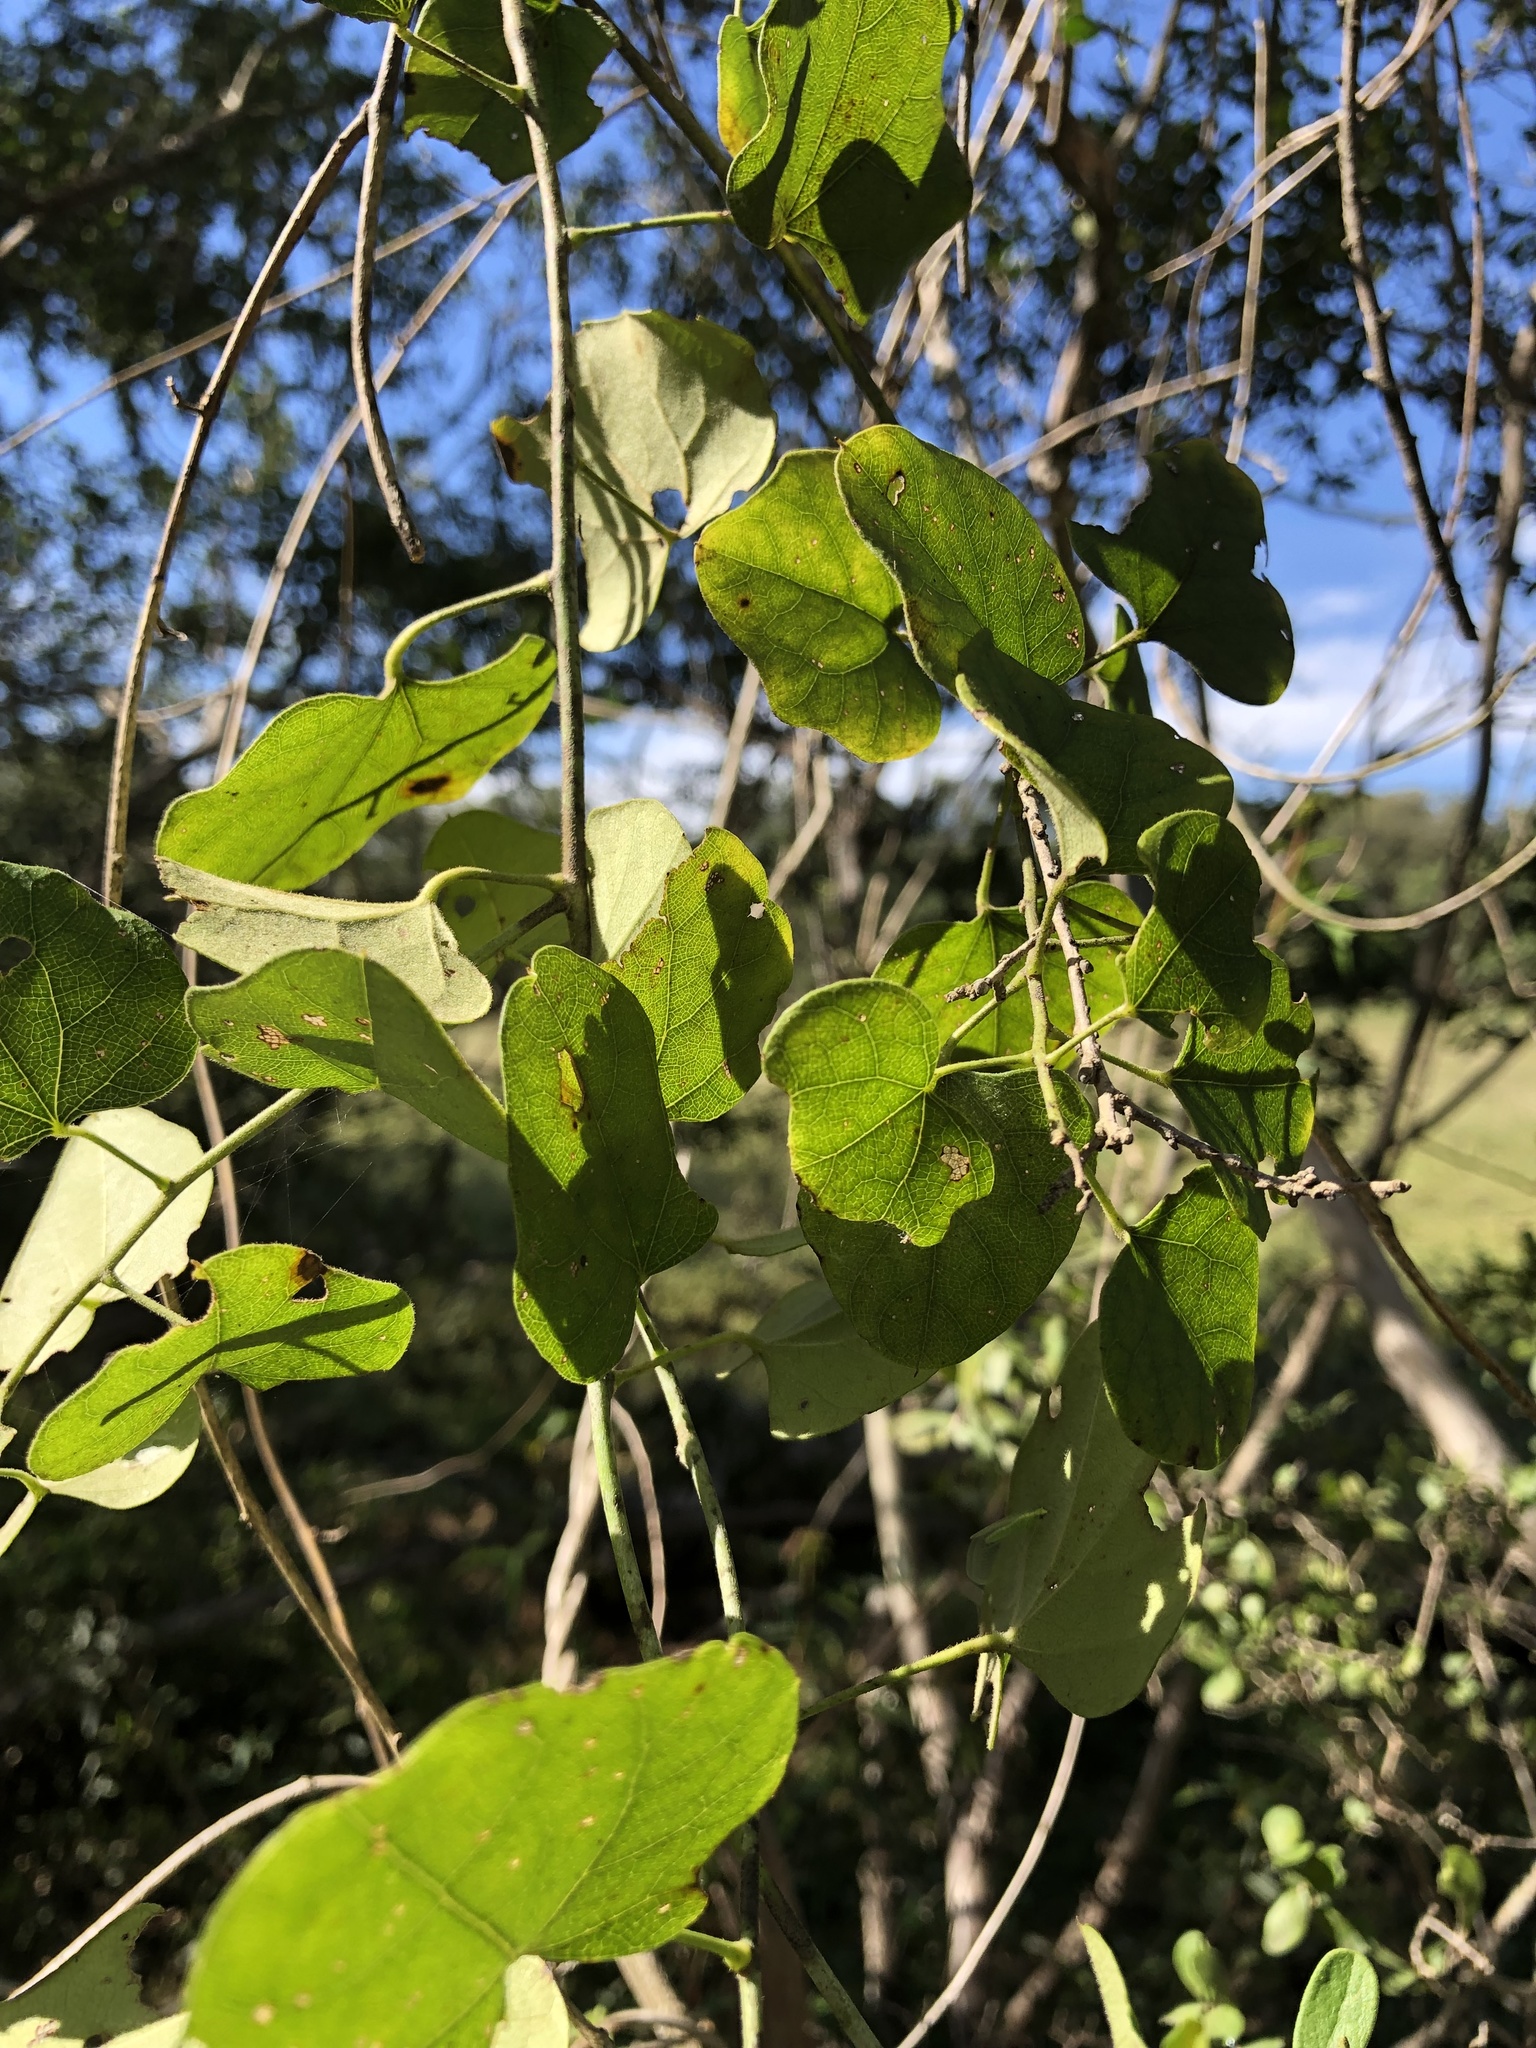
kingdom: Plantae
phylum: Tracheophyta
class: Magnoliopsida
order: Ranunculales
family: Menispermaceae
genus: Cocculus
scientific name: Cocculus carolinus
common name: Carolina moonseed
